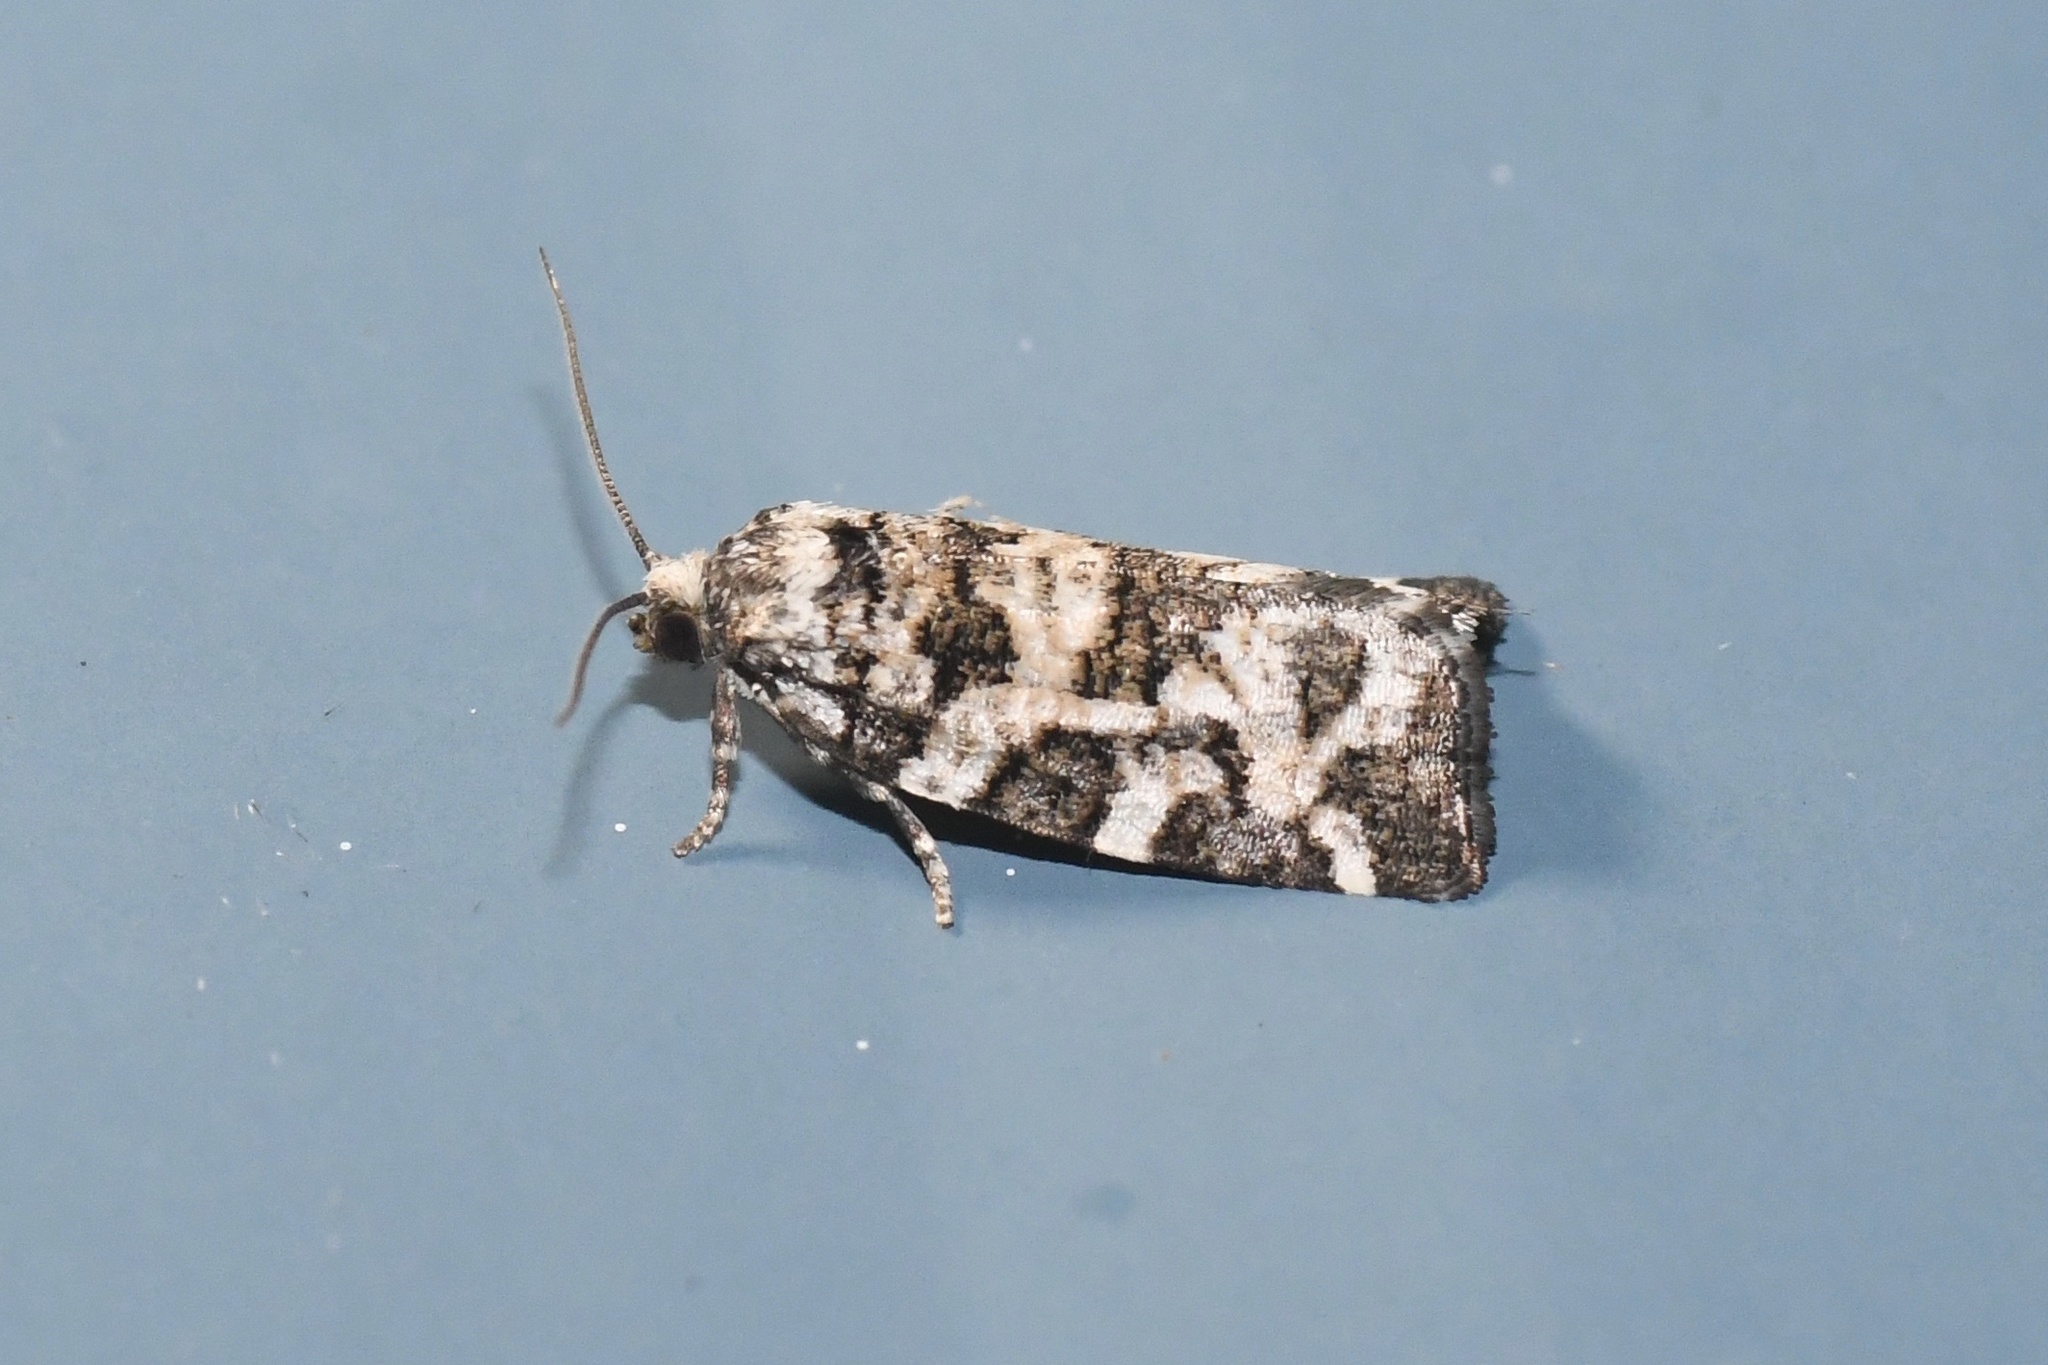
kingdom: Animalia
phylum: Arthropoda
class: Insecta
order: Lepidoptera
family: Tortricidae
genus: Archips
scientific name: Archips packardiana
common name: Spring spruce needle moth
